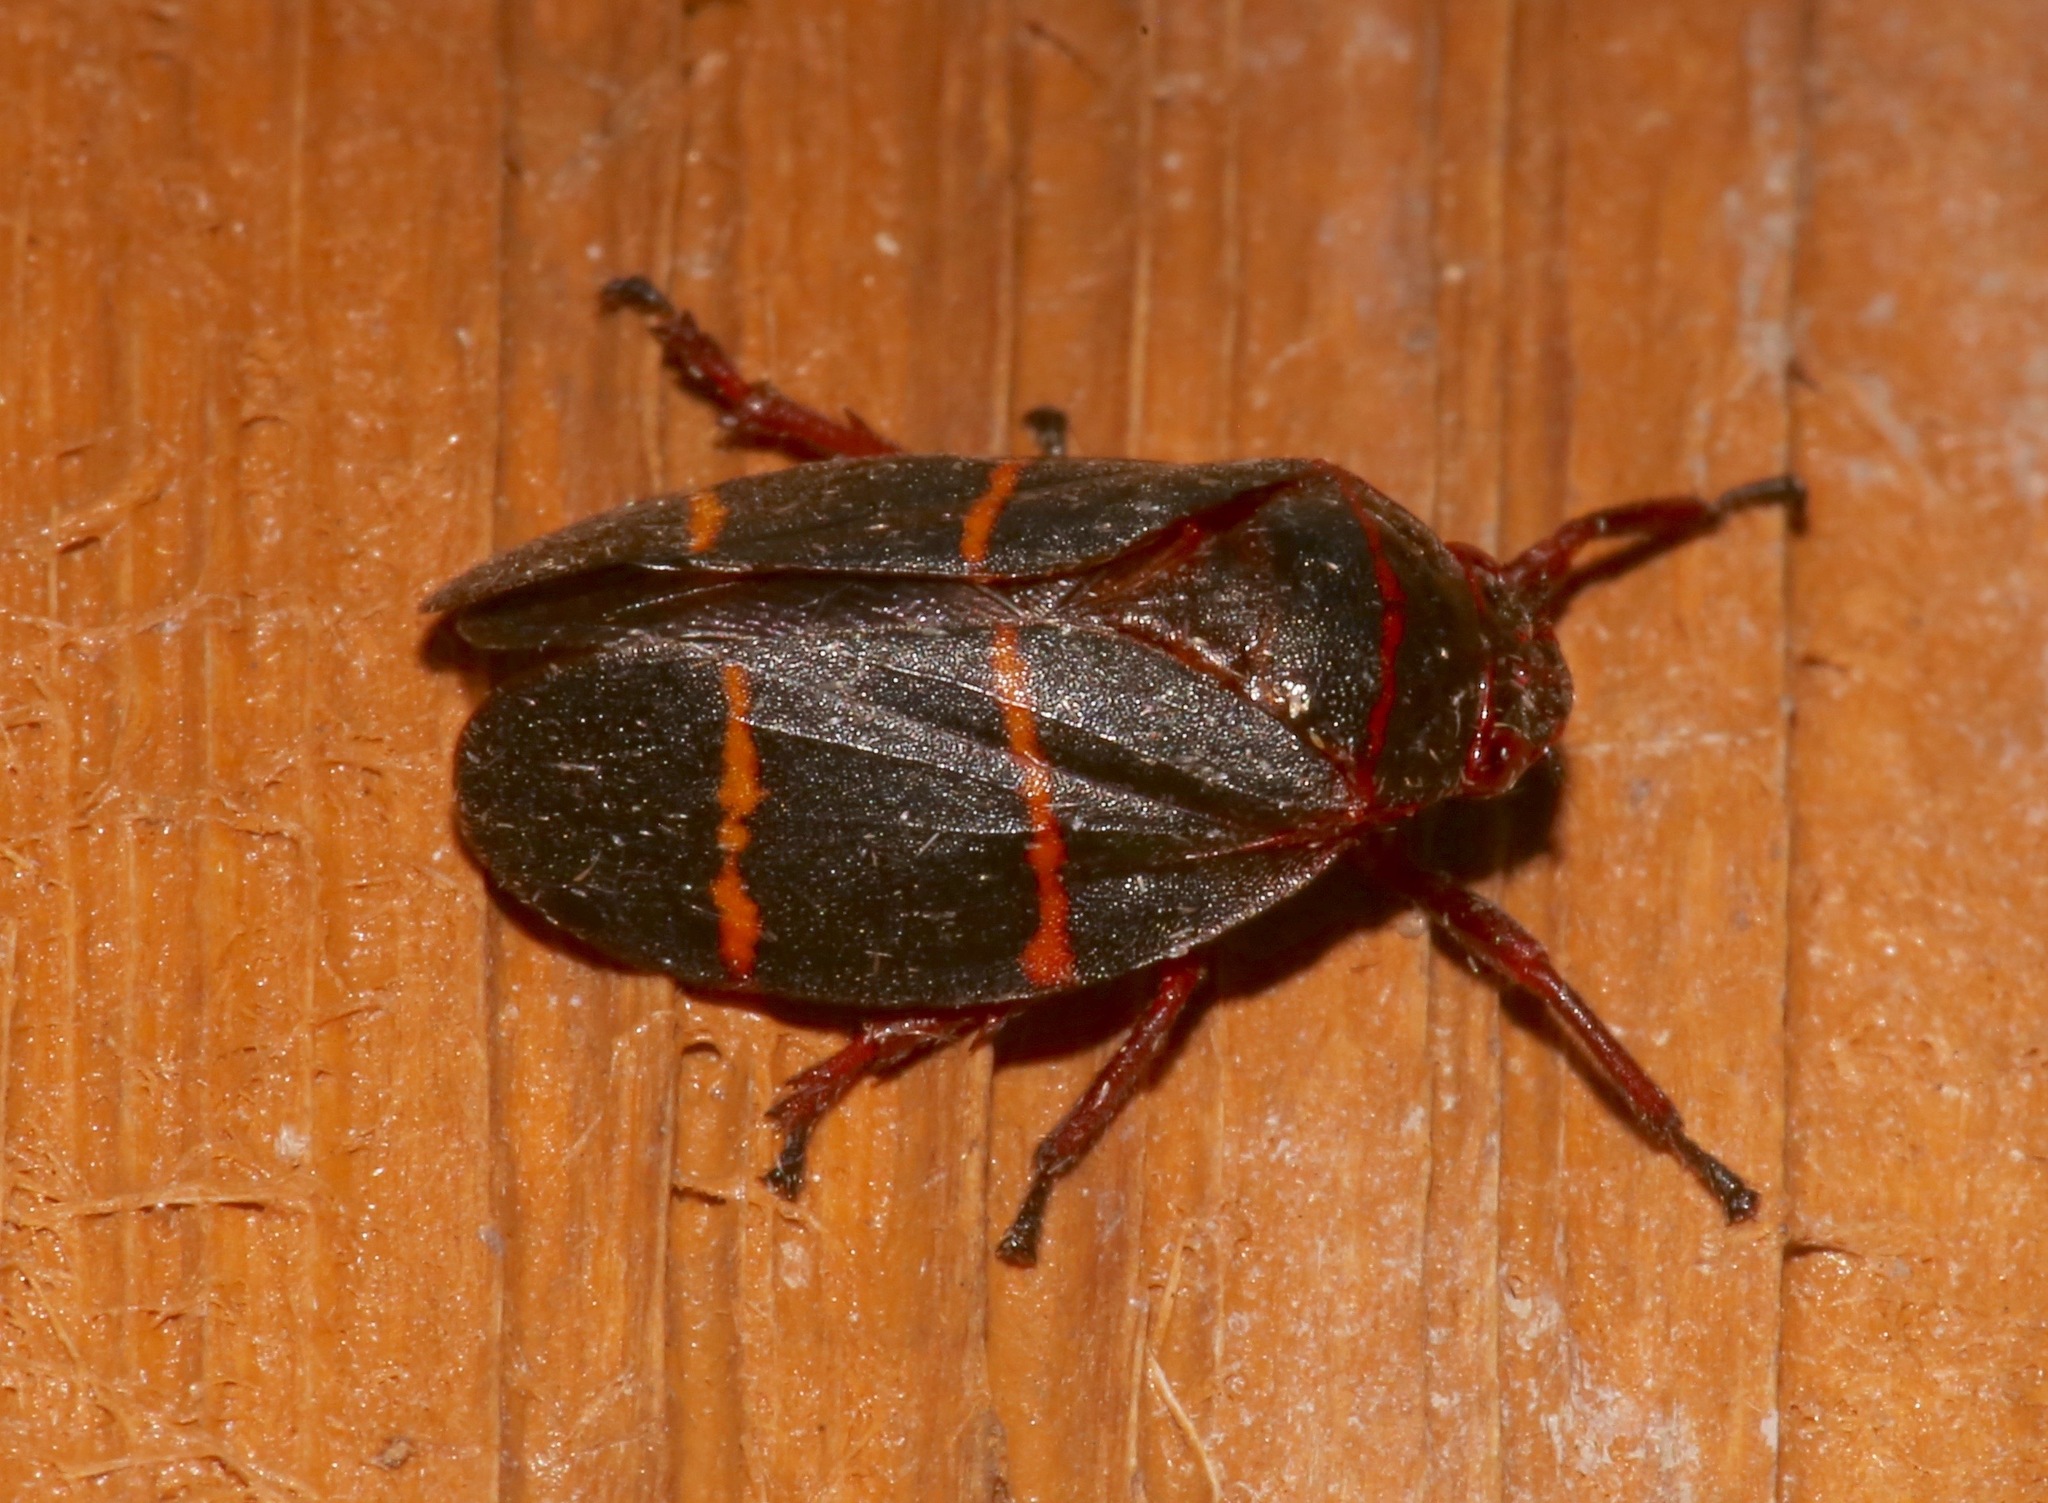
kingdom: Animalia
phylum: Arthropoda
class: Insecta
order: Hemiptera
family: Cercopidae
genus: Prosapia
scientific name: Prosapia bicincta
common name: Twolined spittlebug
